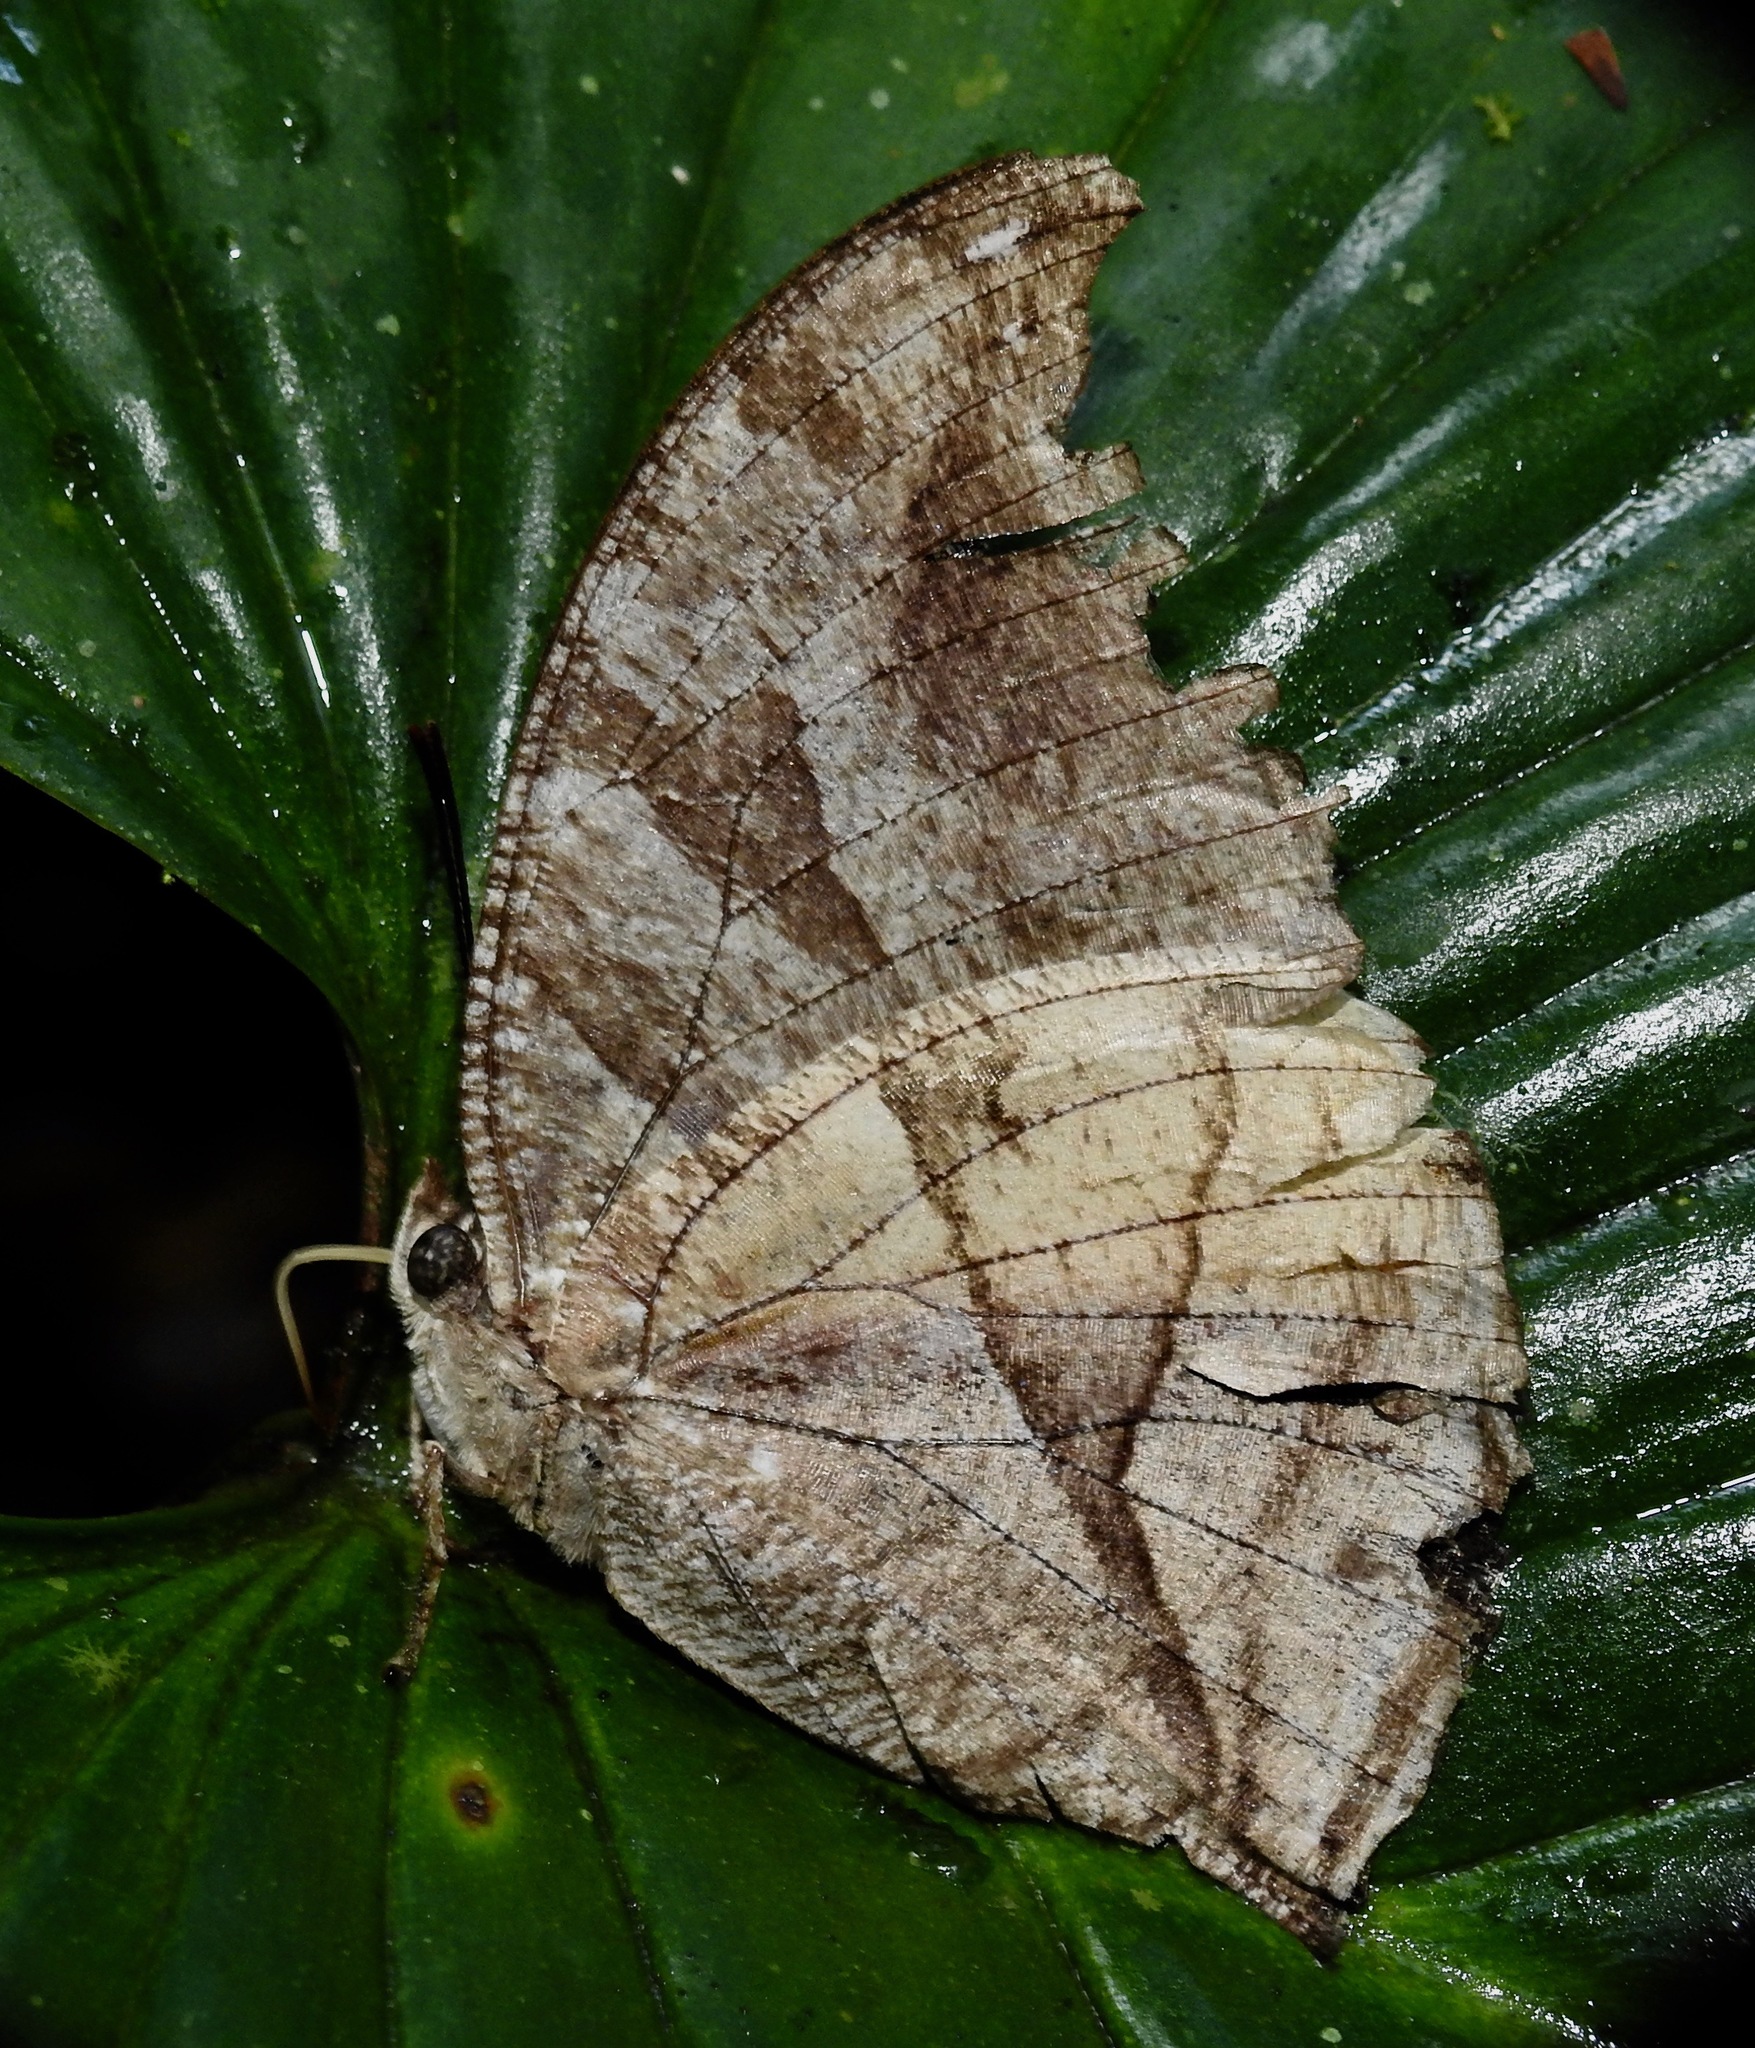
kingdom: Animalia
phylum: Arthropoda
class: Insecta
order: Lepidoptera
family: Nymphalidae
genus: Consul
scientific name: Consul panariste
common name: Tricolored leafwing
